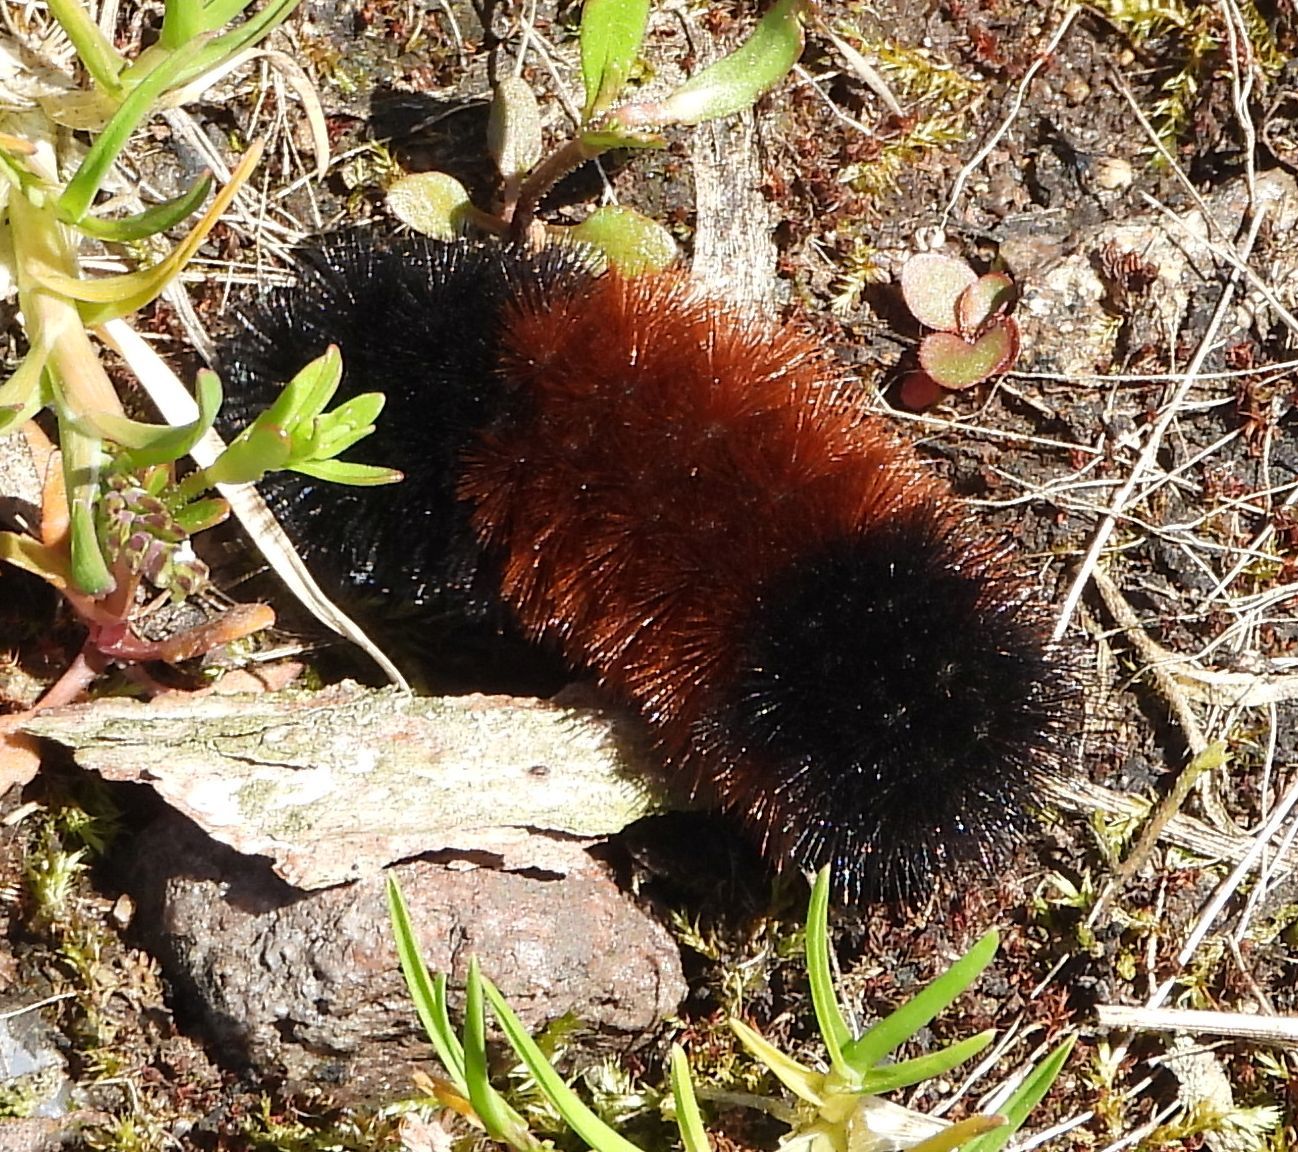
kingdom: Animalia
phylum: Arthropoda
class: Insecta
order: Lepidoptera
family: Erebidae
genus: Pyrrharctia
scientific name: Pyrrharctia isabella
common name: Isabella tiger moth
